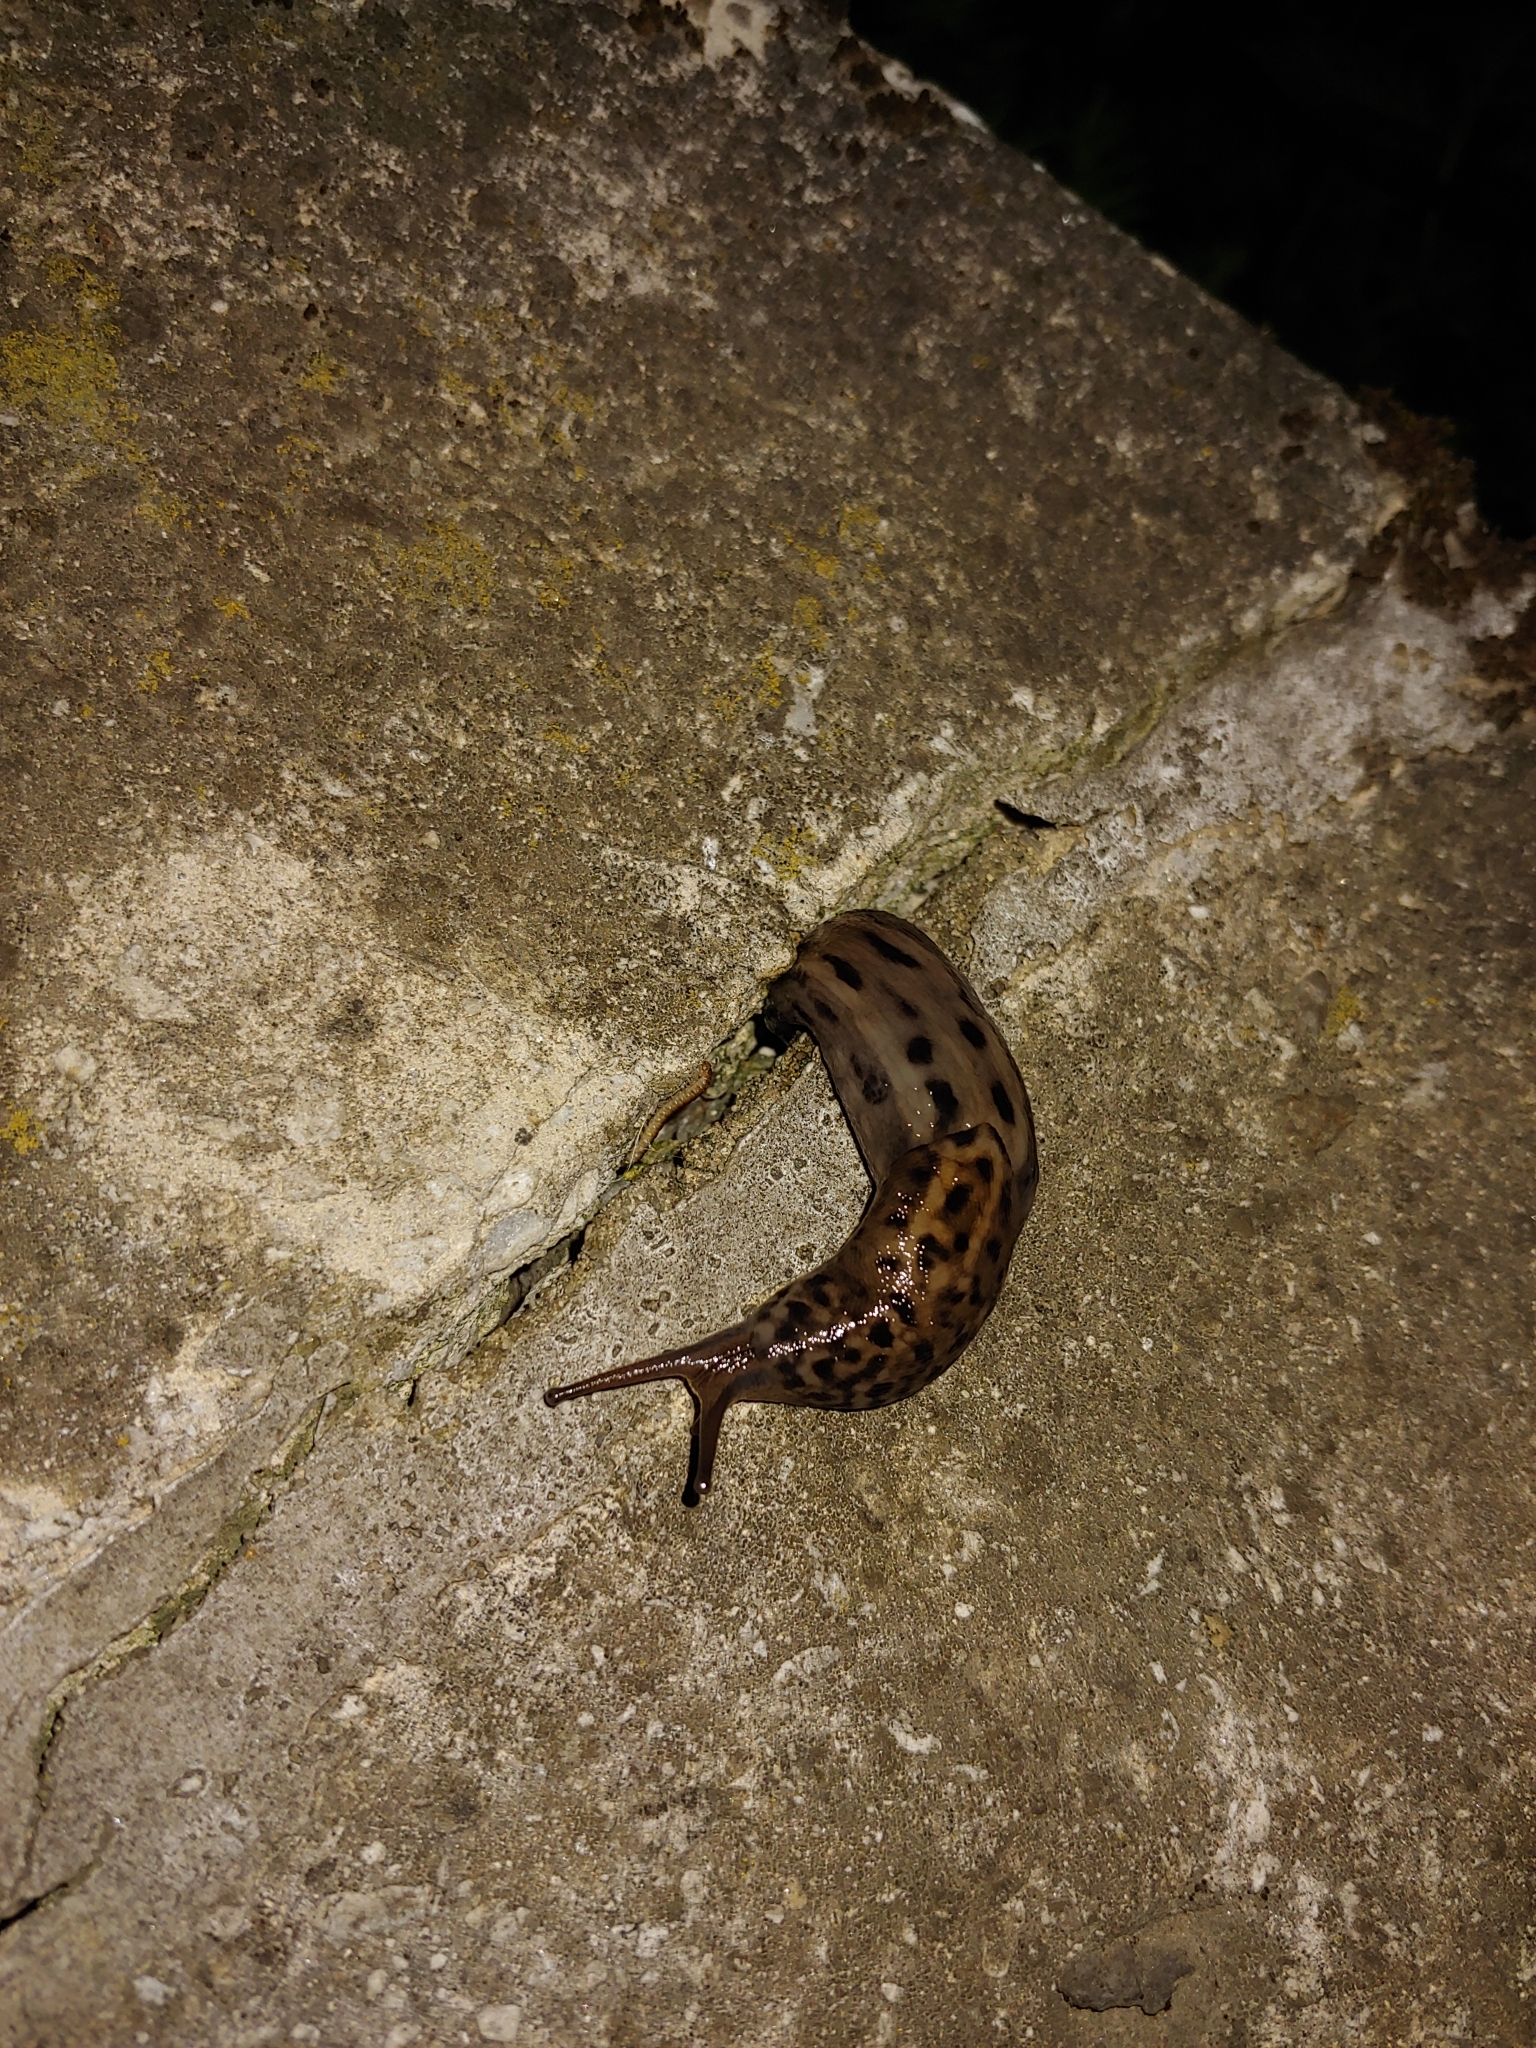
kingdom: Animalia
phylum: Mollusca
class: Gastropoda
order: Stylommatophora
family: Limacidae
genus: Limax
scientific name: Limax maximus
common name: Great grey slug
